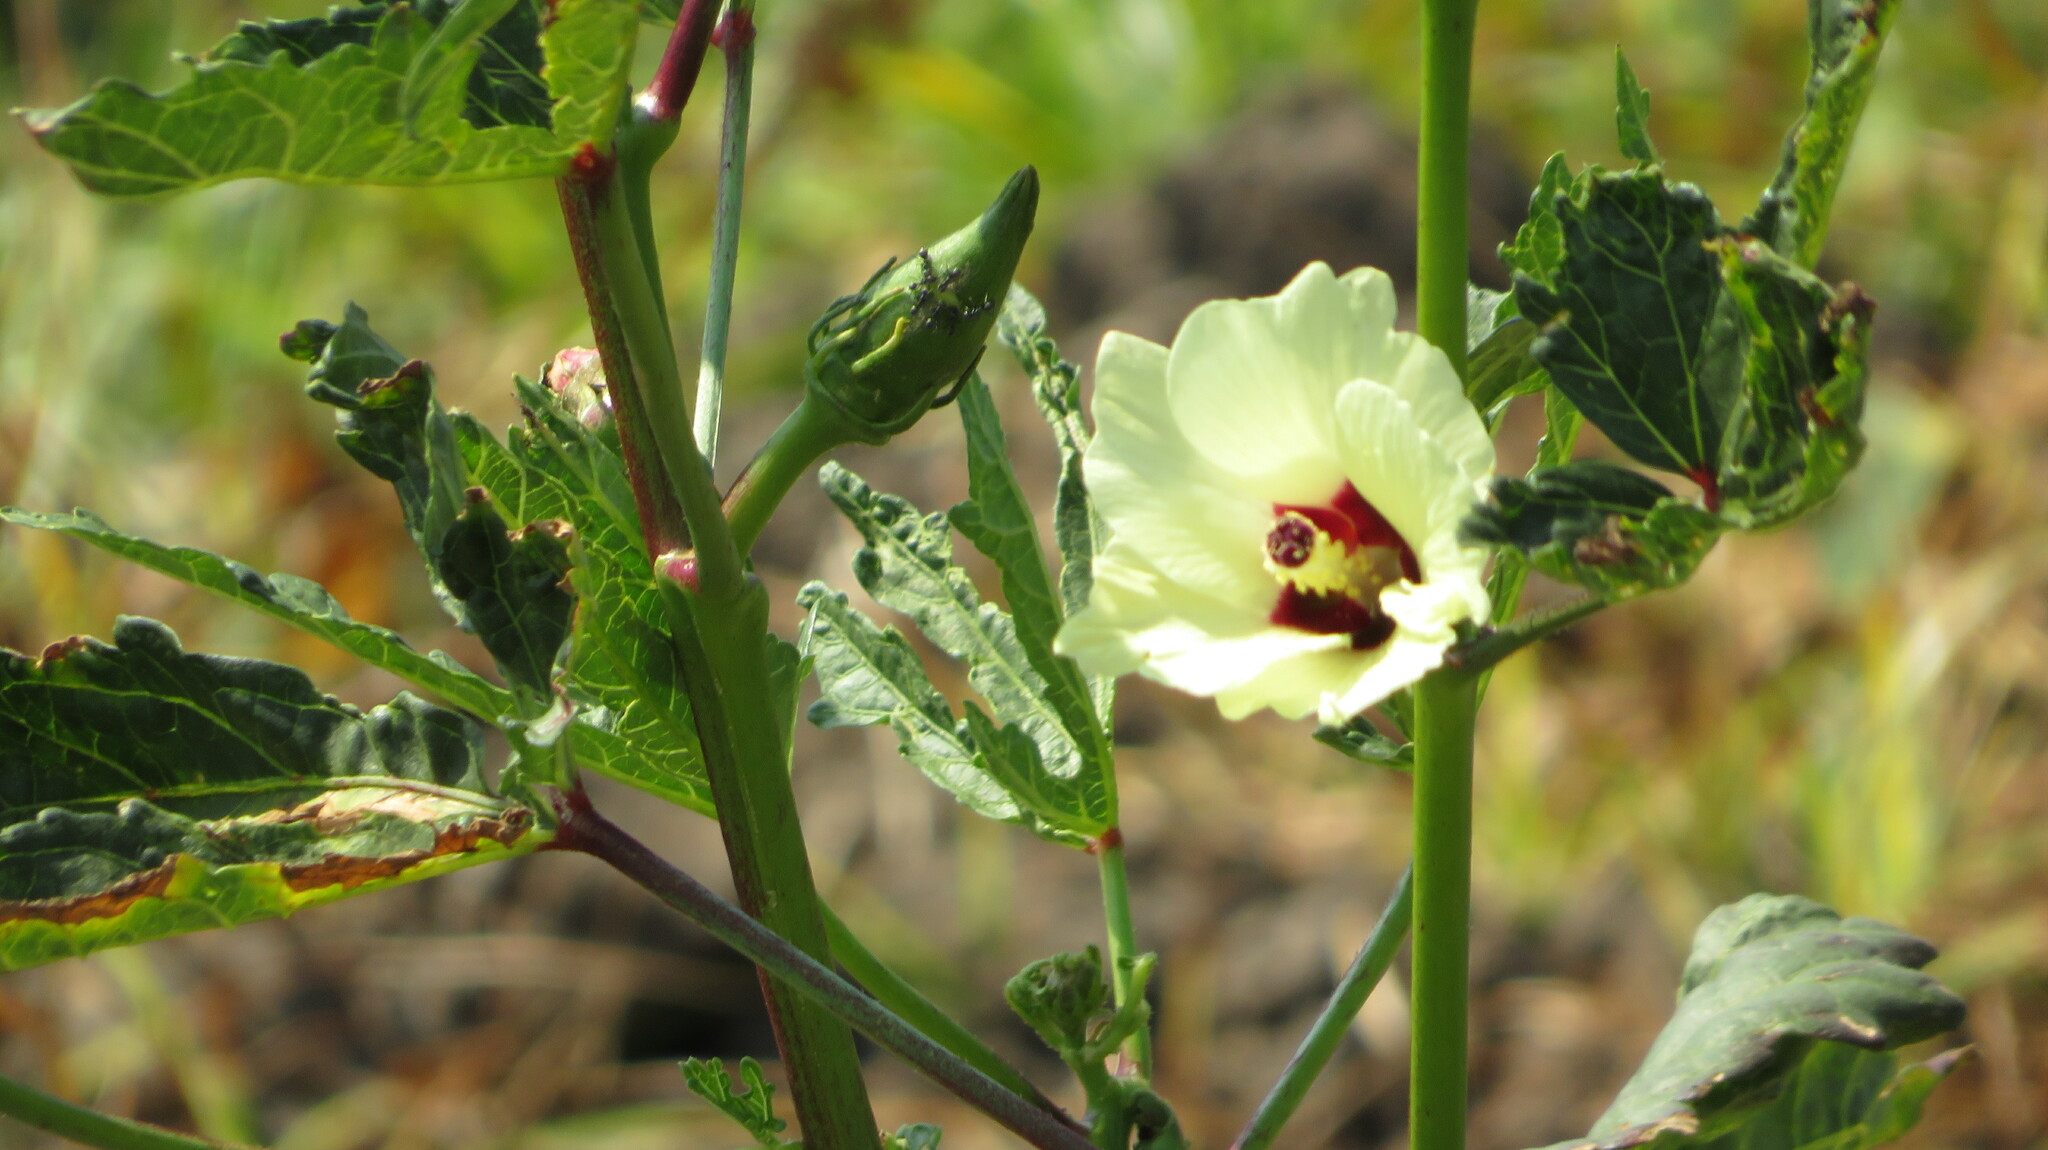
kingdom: Plantae
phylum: Tracheophyta
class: Magnoliopsida
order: Malvales
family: Malvaceae
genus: Abelmoschus
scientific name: Abelmoschus esculentus
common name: Okra
